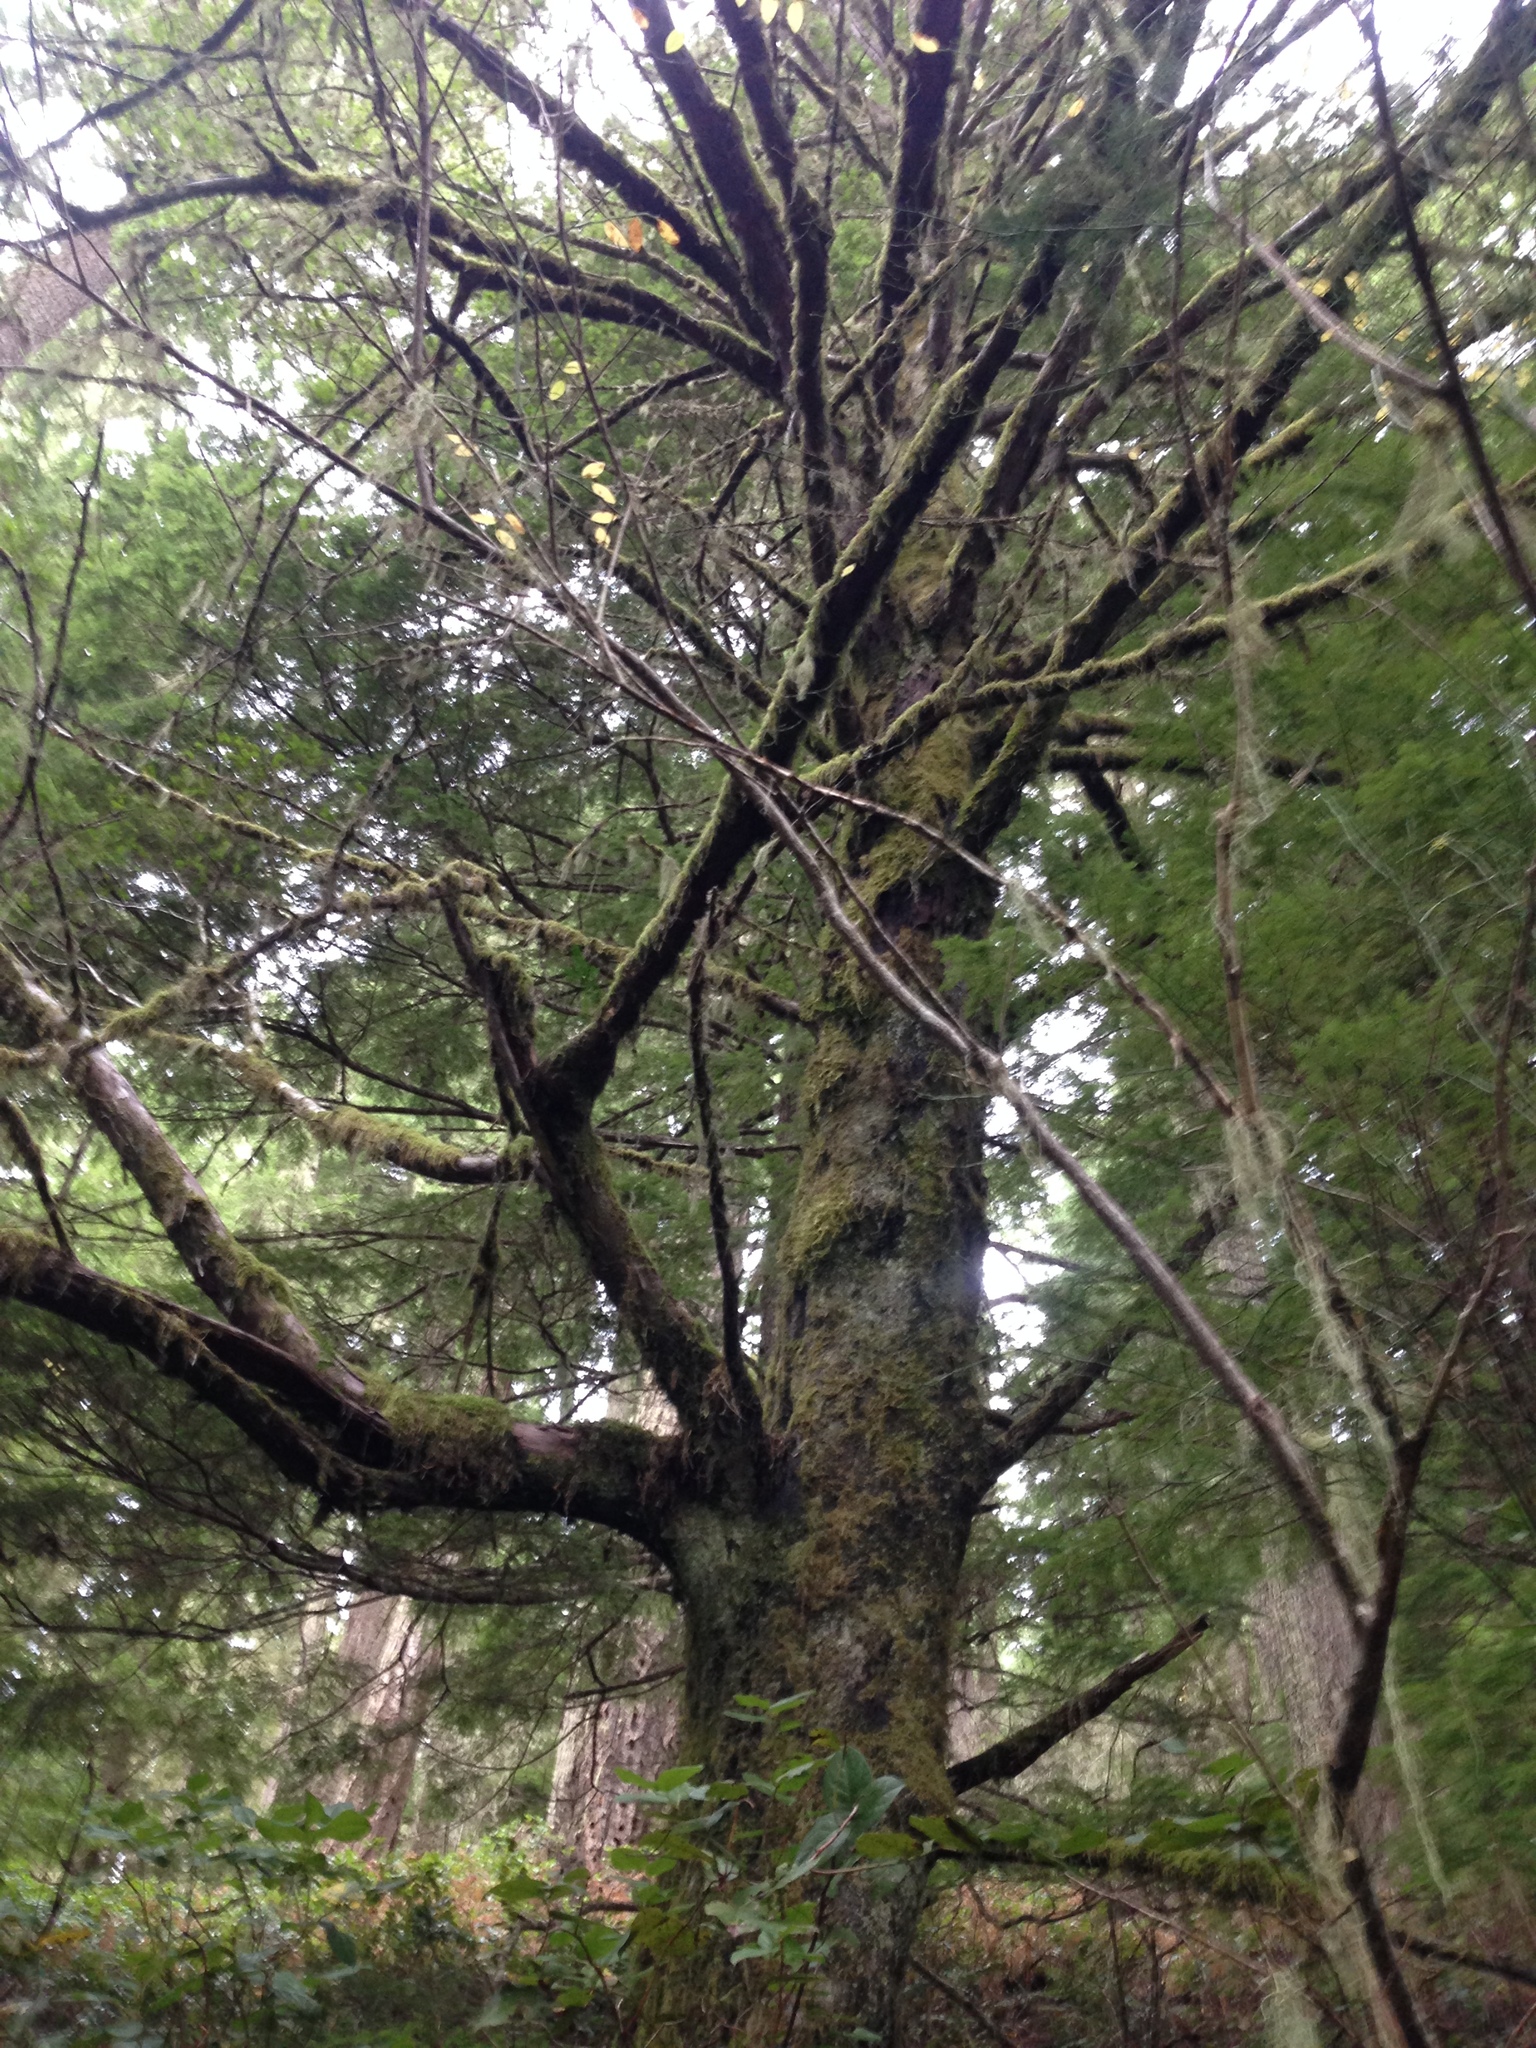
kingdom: Plantae
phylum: Tracheophyta
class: Pinopsida
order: Pinales
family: Taxaceae
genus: Taxus
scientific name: Taxus brevifolia
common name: Pacific yew
